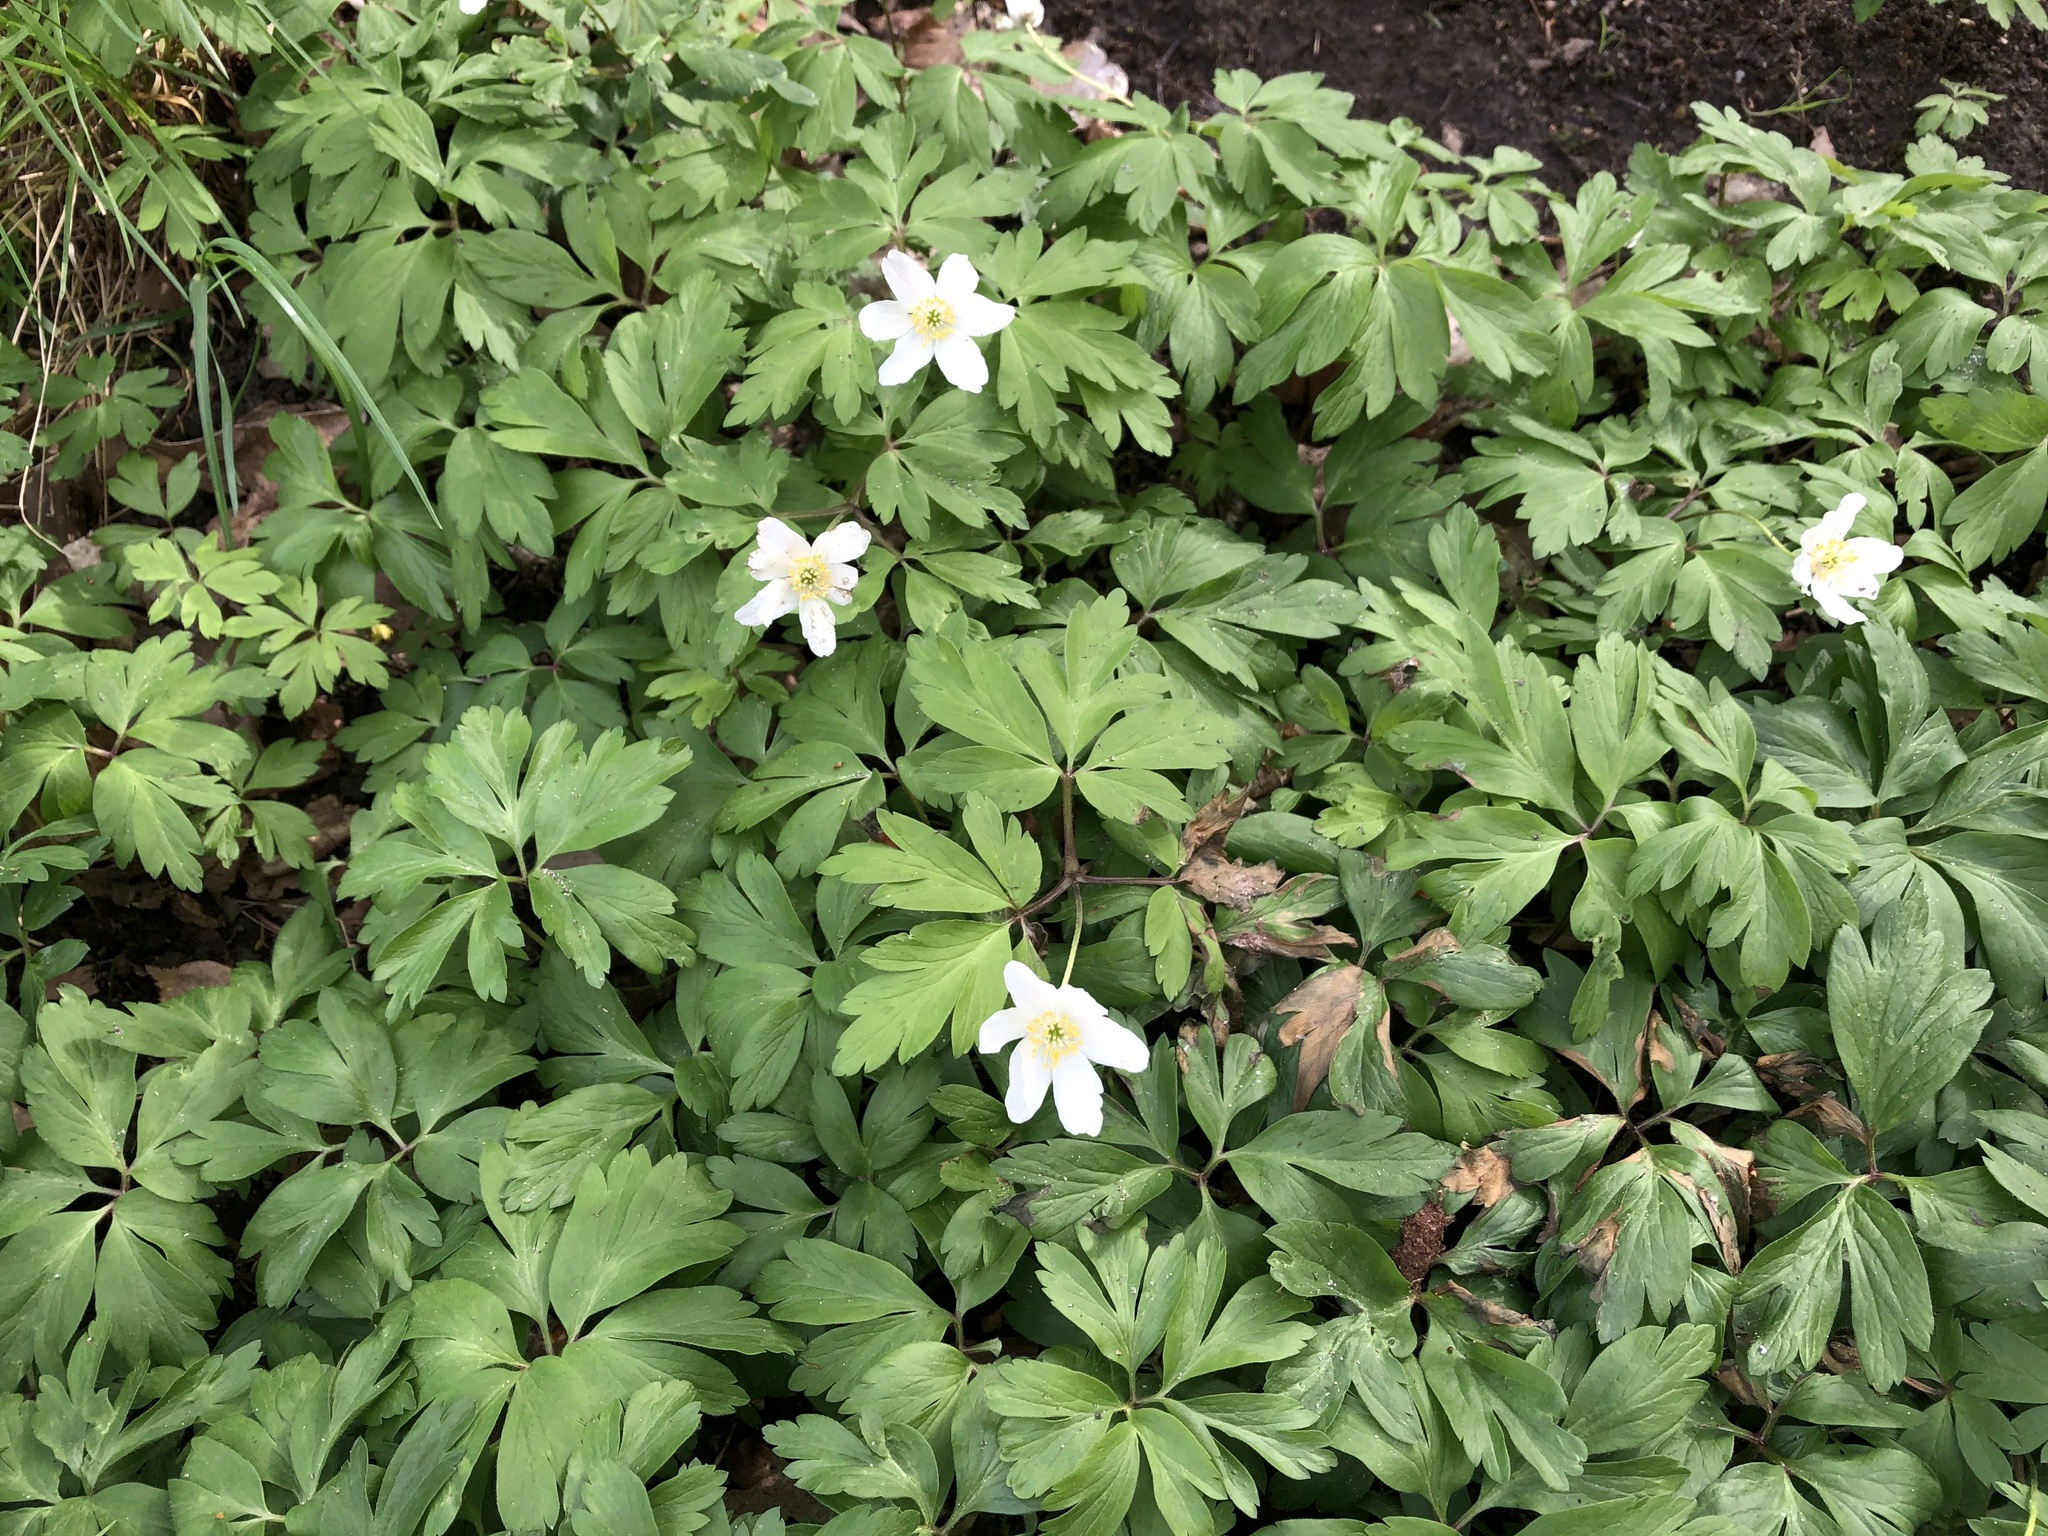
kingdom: Plantae
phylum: Tracheophyta
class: Magnoliopsida
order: Ranunculales
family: Ranunculaceae
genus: Anemone
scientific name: Anemone nemorosa
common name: Wood anemone
